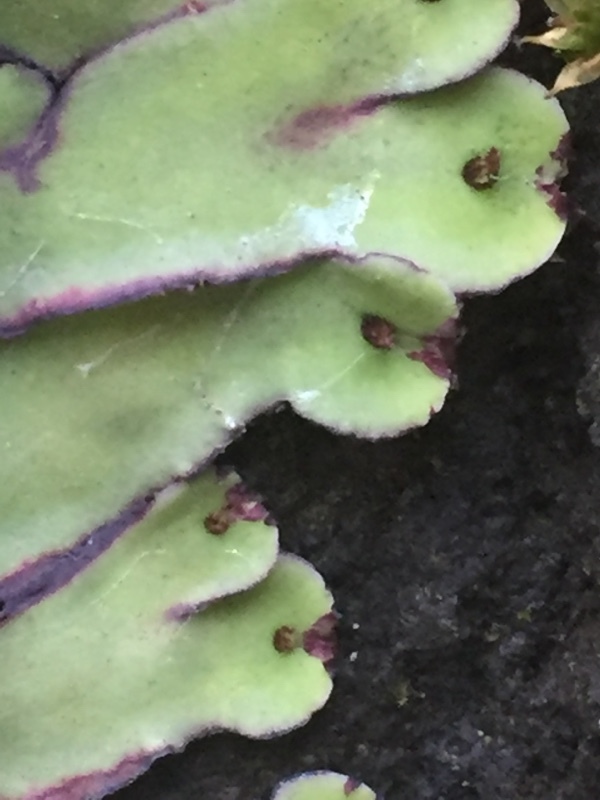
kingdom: Plantae
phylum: Marchantiophyta
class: Marchantiopsida
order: Marchantiales
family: Aytoniaceae
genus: Plagiochasma
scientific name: Plagiochasma rupestre
